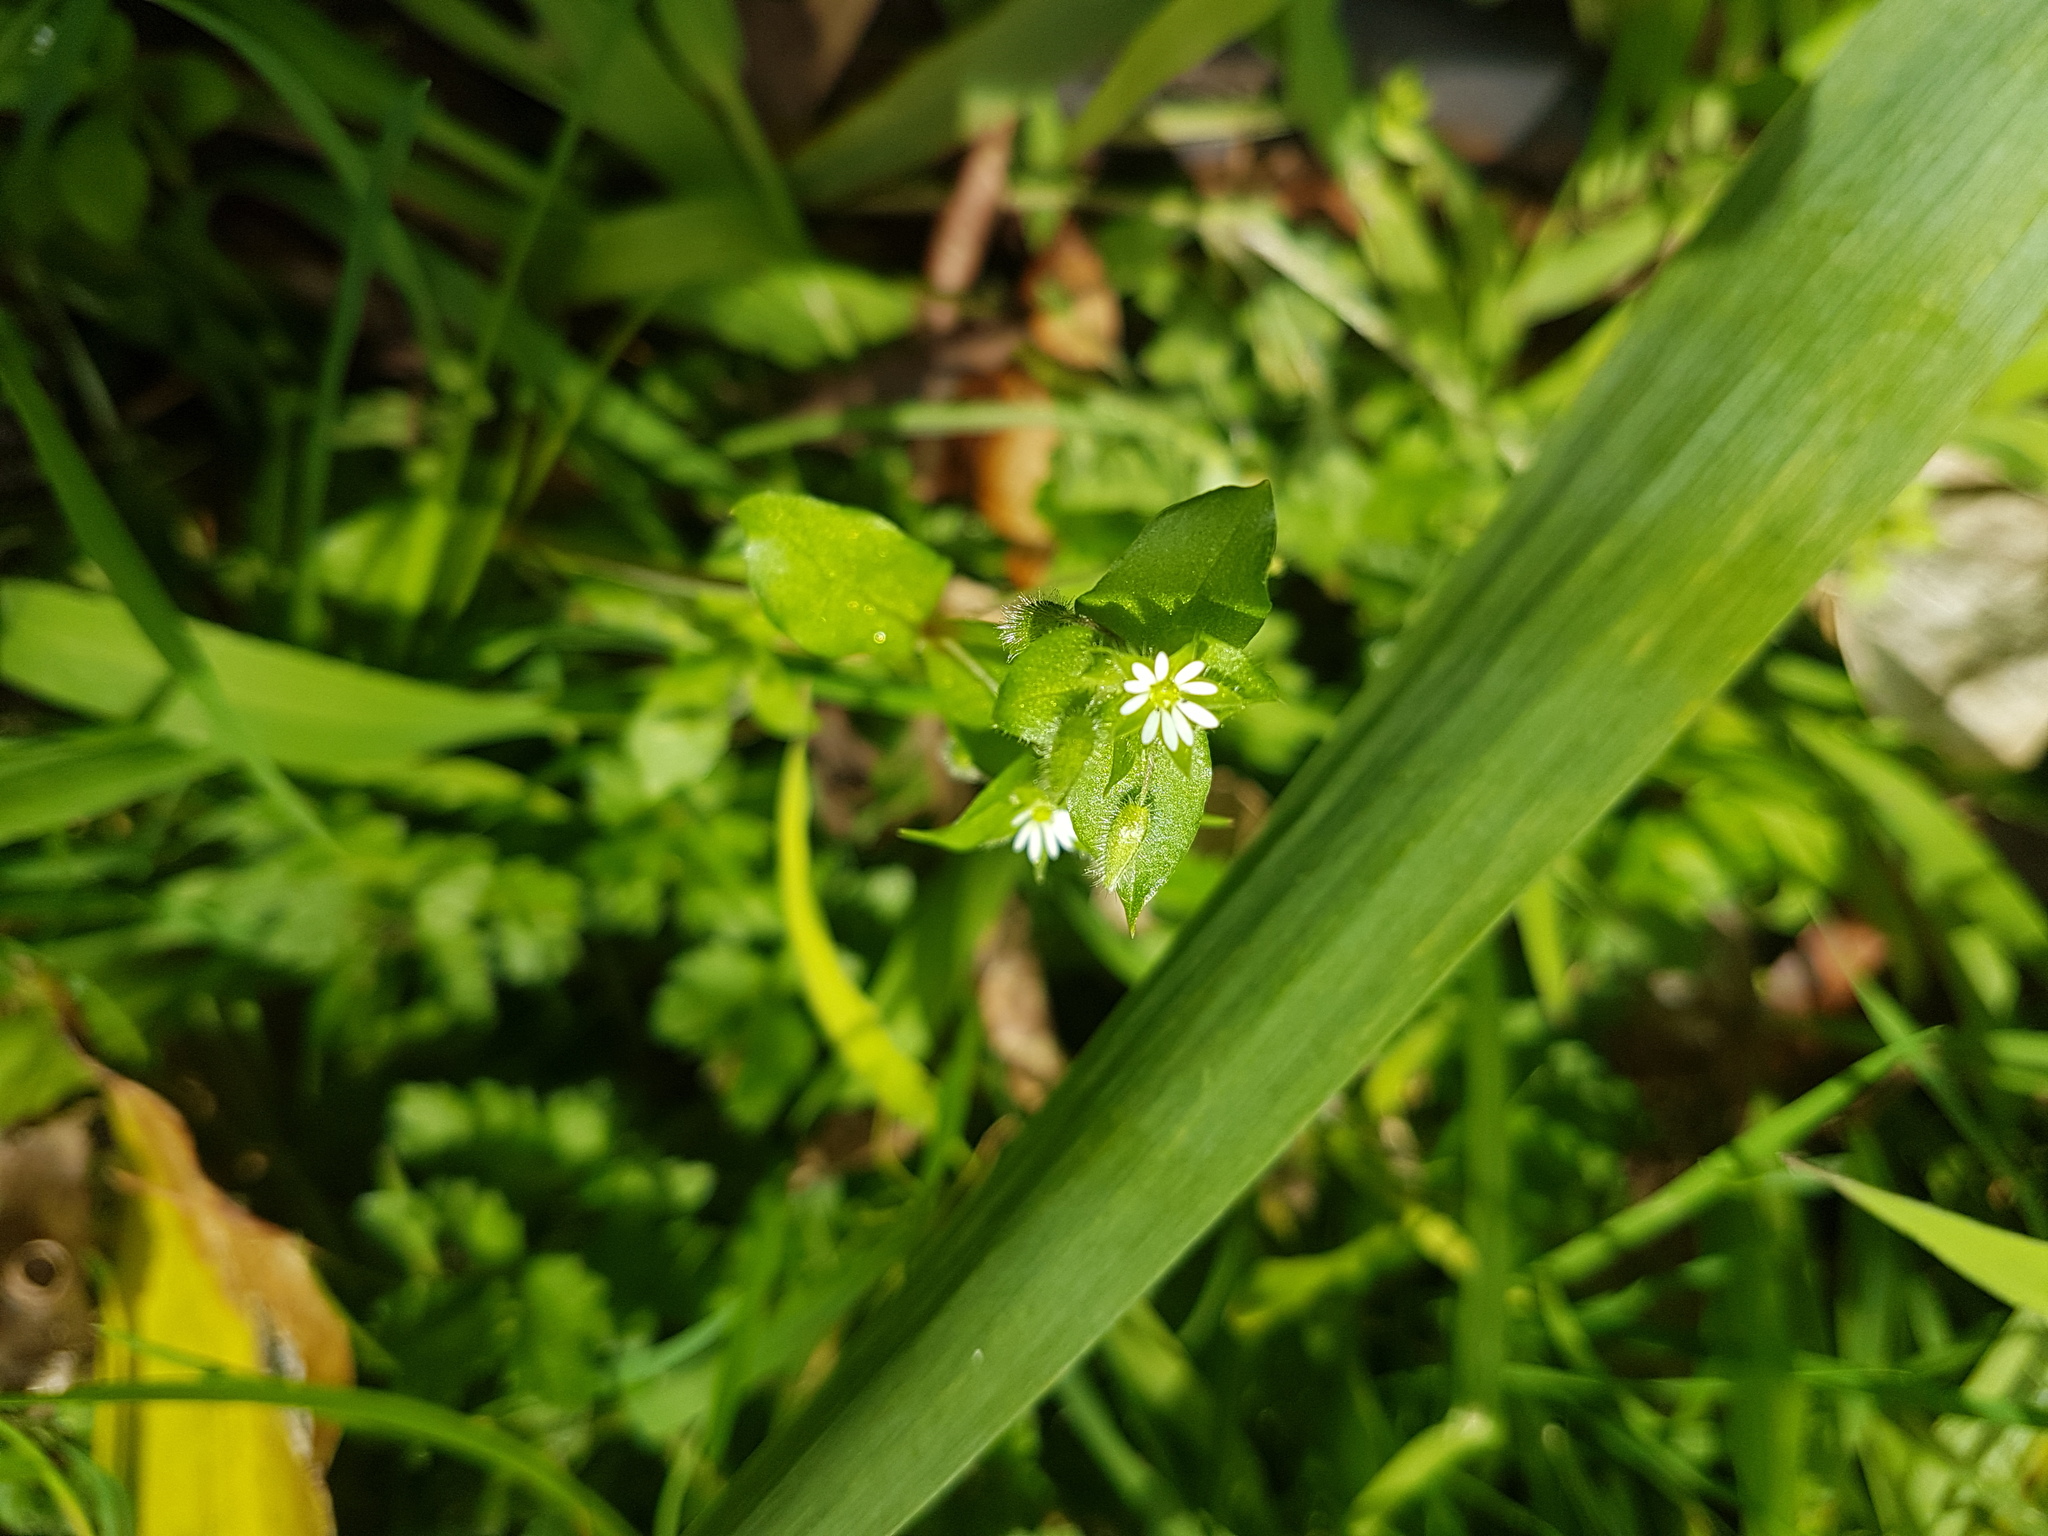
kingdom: Plantae
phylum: Tracheophyta
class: Magnoliopsida
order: Caryophyllales
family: Caryophyllaceae
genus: Stellaria
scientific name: Stellaria media
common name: Common chickweed
